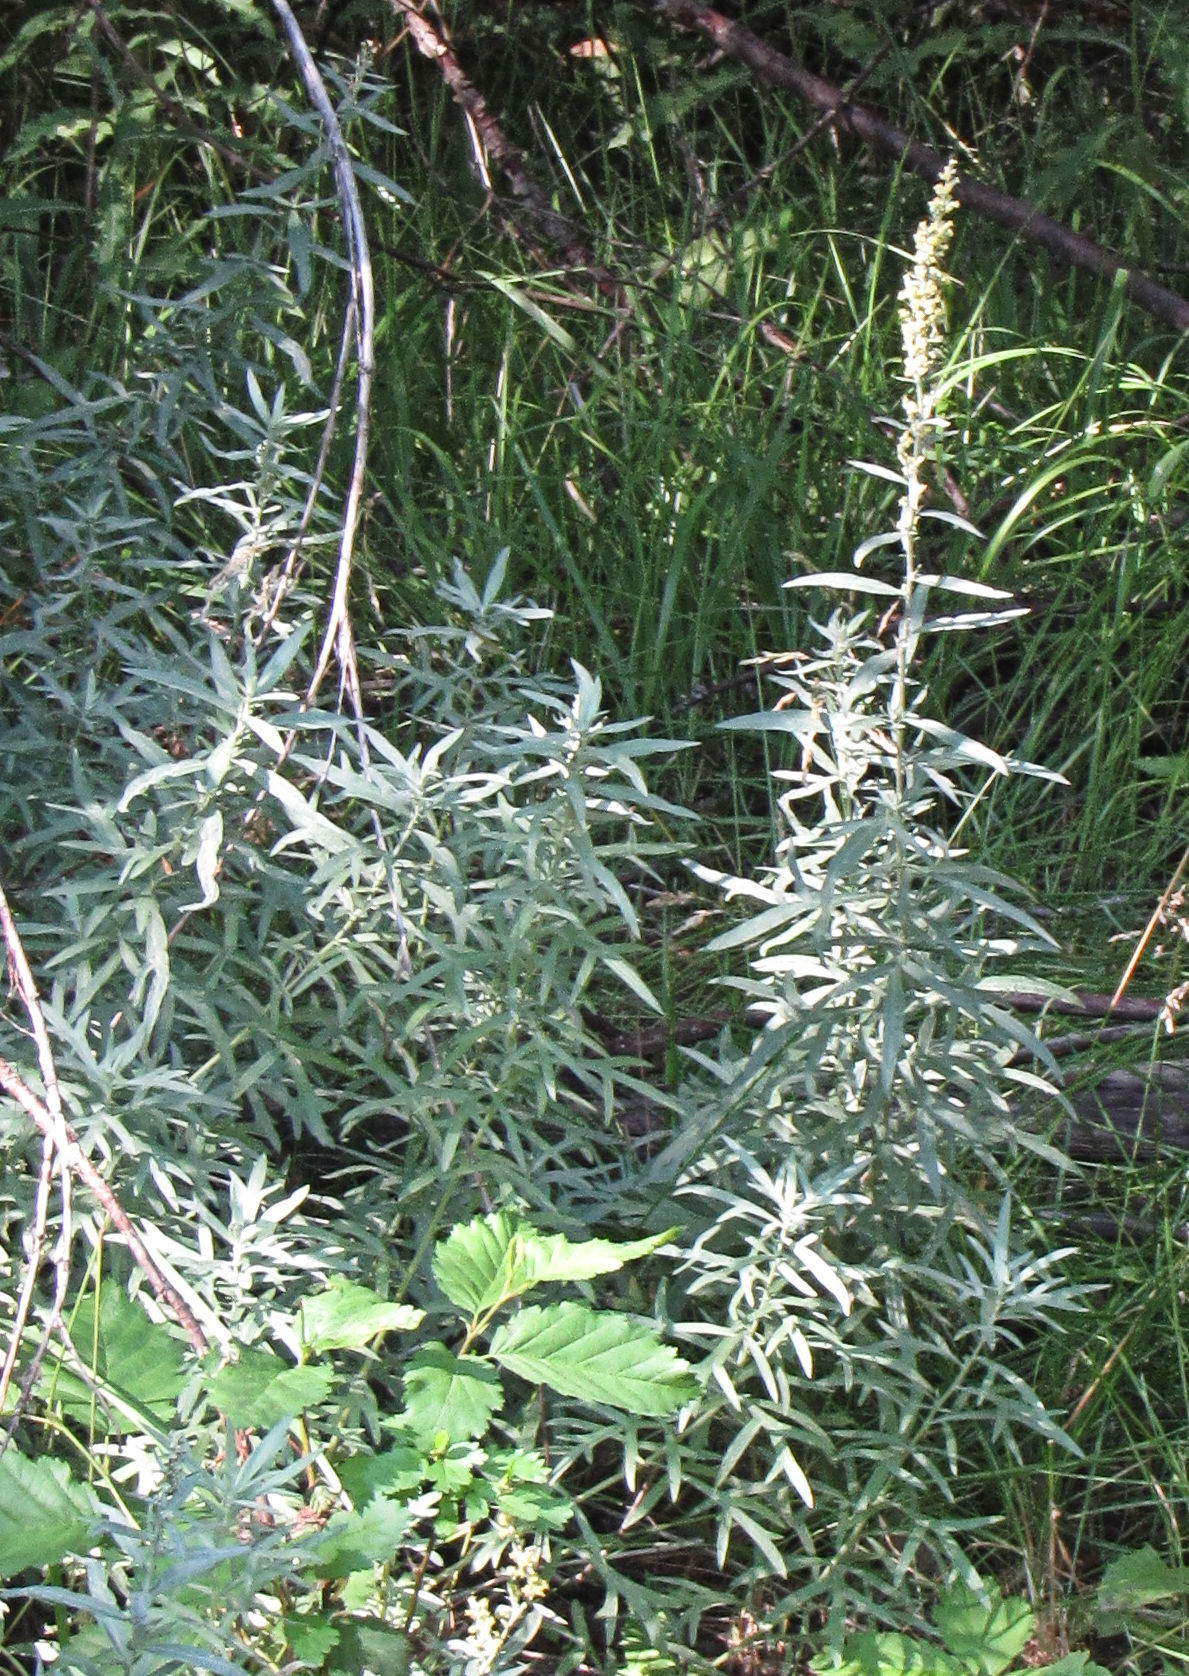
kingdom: Plantae
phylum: Tracheophyta
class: Magnoliopsida
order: Asterales
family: Asteraceae
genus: Artemisia
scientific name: Artemisia ludoviciana
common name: Western mugwort
